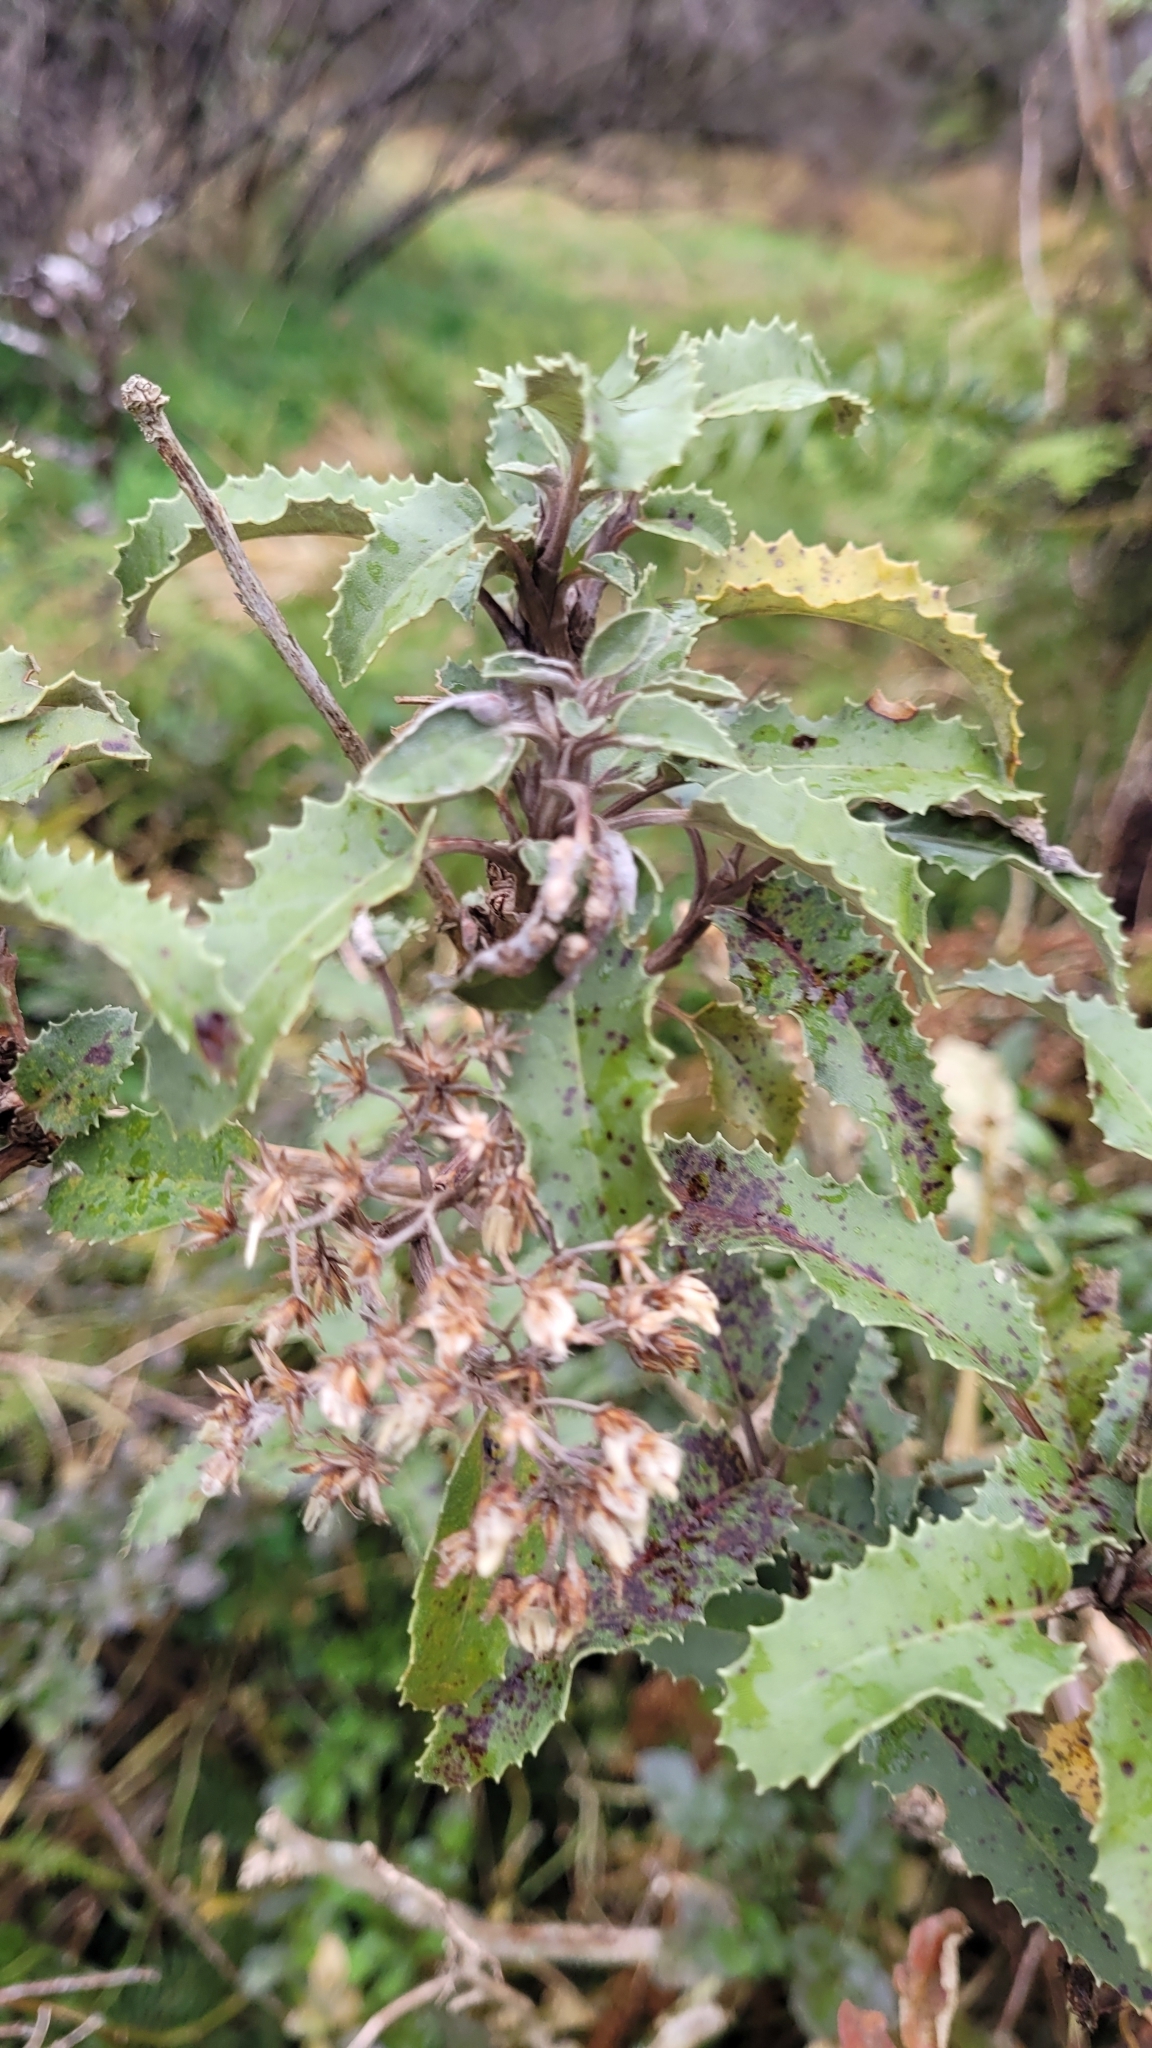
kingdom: Plantae
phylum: Tracheophyta
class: Magnoliopsida
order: Asterales
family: Asteraceae
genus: Olearia
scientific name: Olearia ilicifolia
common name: Maori-holly
